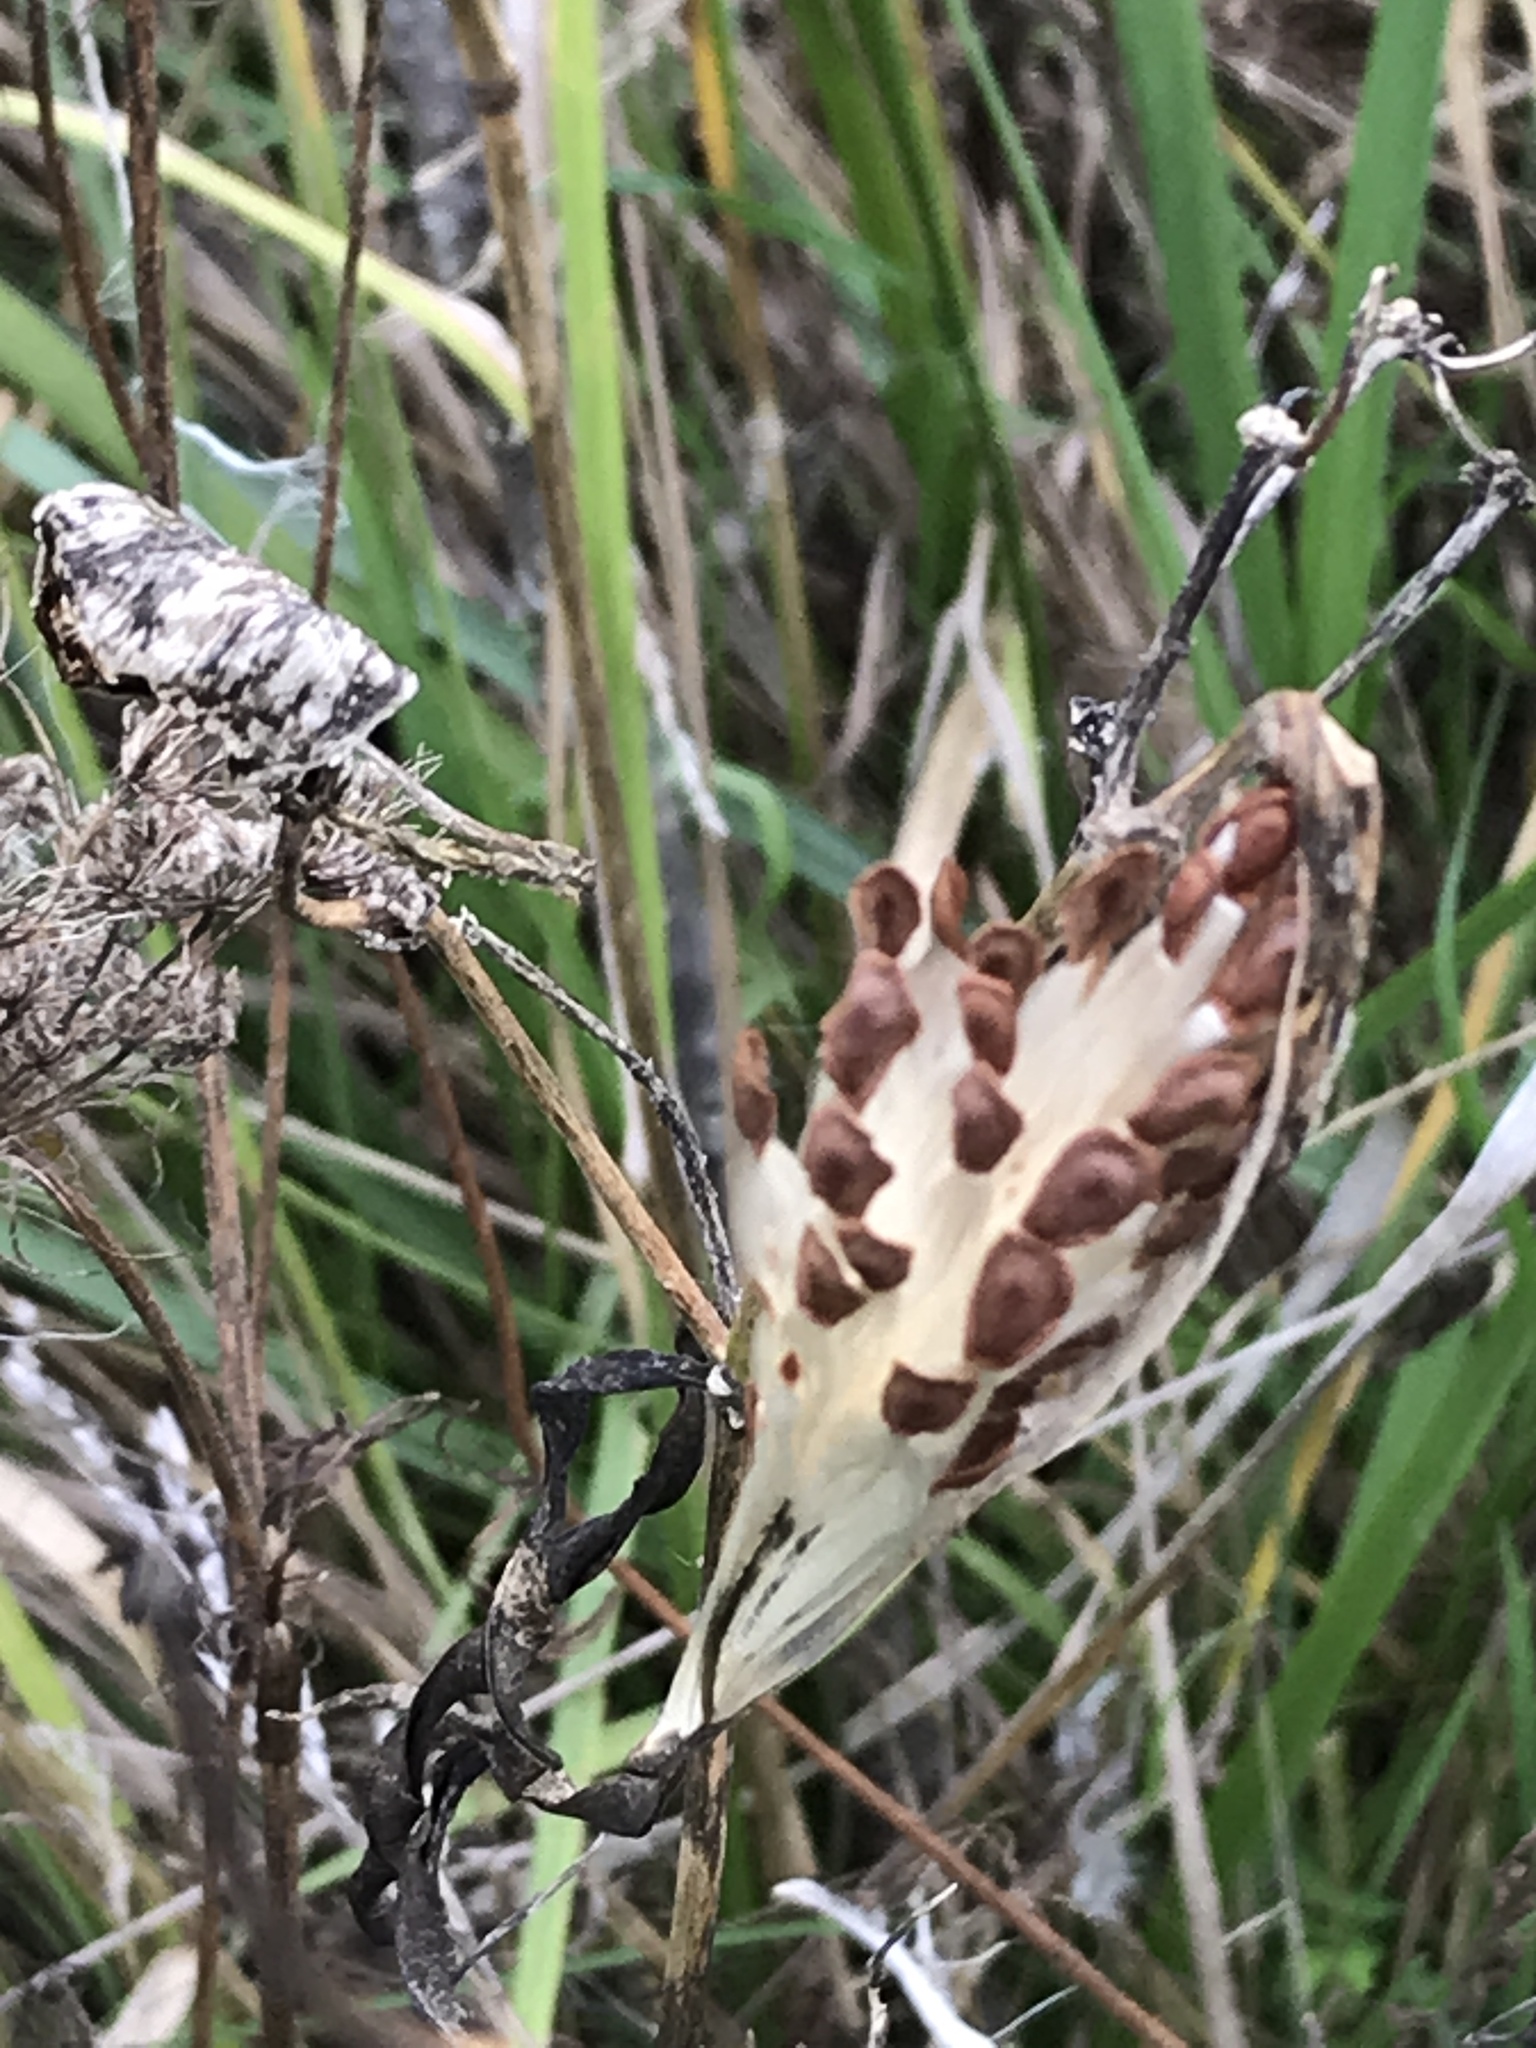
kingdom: Plantae
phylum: Tracheophyta
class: Magnoliopsida
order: Gentianales
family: Apocynaceae
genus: Asclepias
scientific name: Asclepias fascicularis
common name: Mexican milkweed
